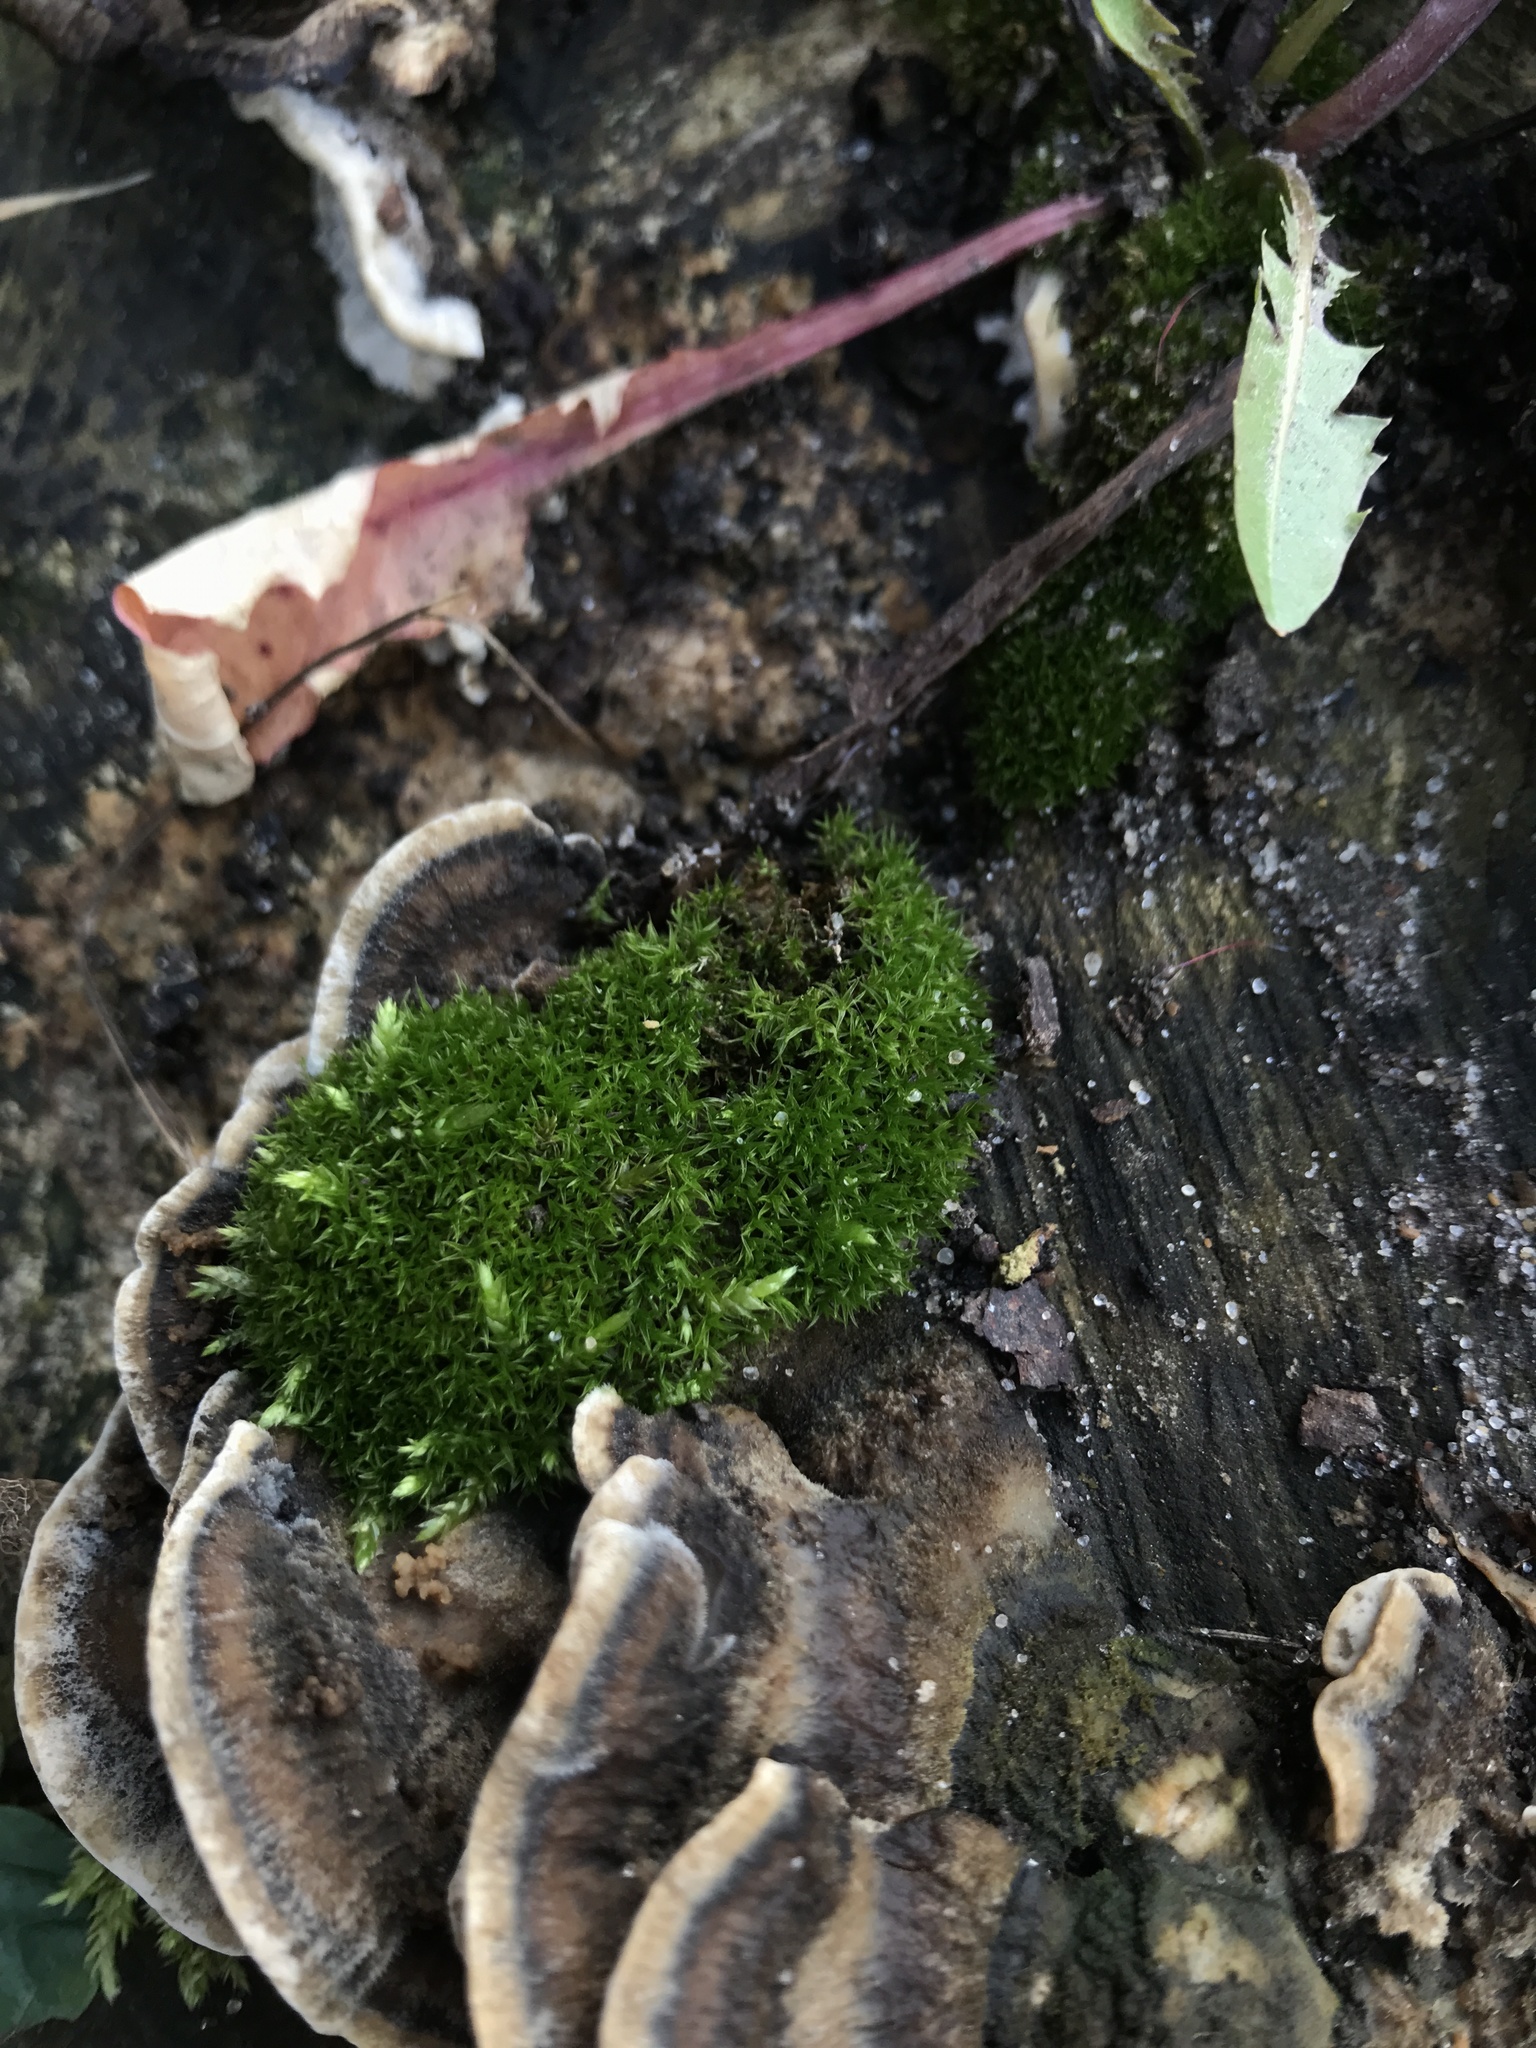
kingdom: Plantae
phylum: Bryophyta
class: Bryopsida
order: Dicranales
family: Ditrichaceae
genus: Ceratodon
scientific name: Ceratodon purpureus
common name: Redshank
